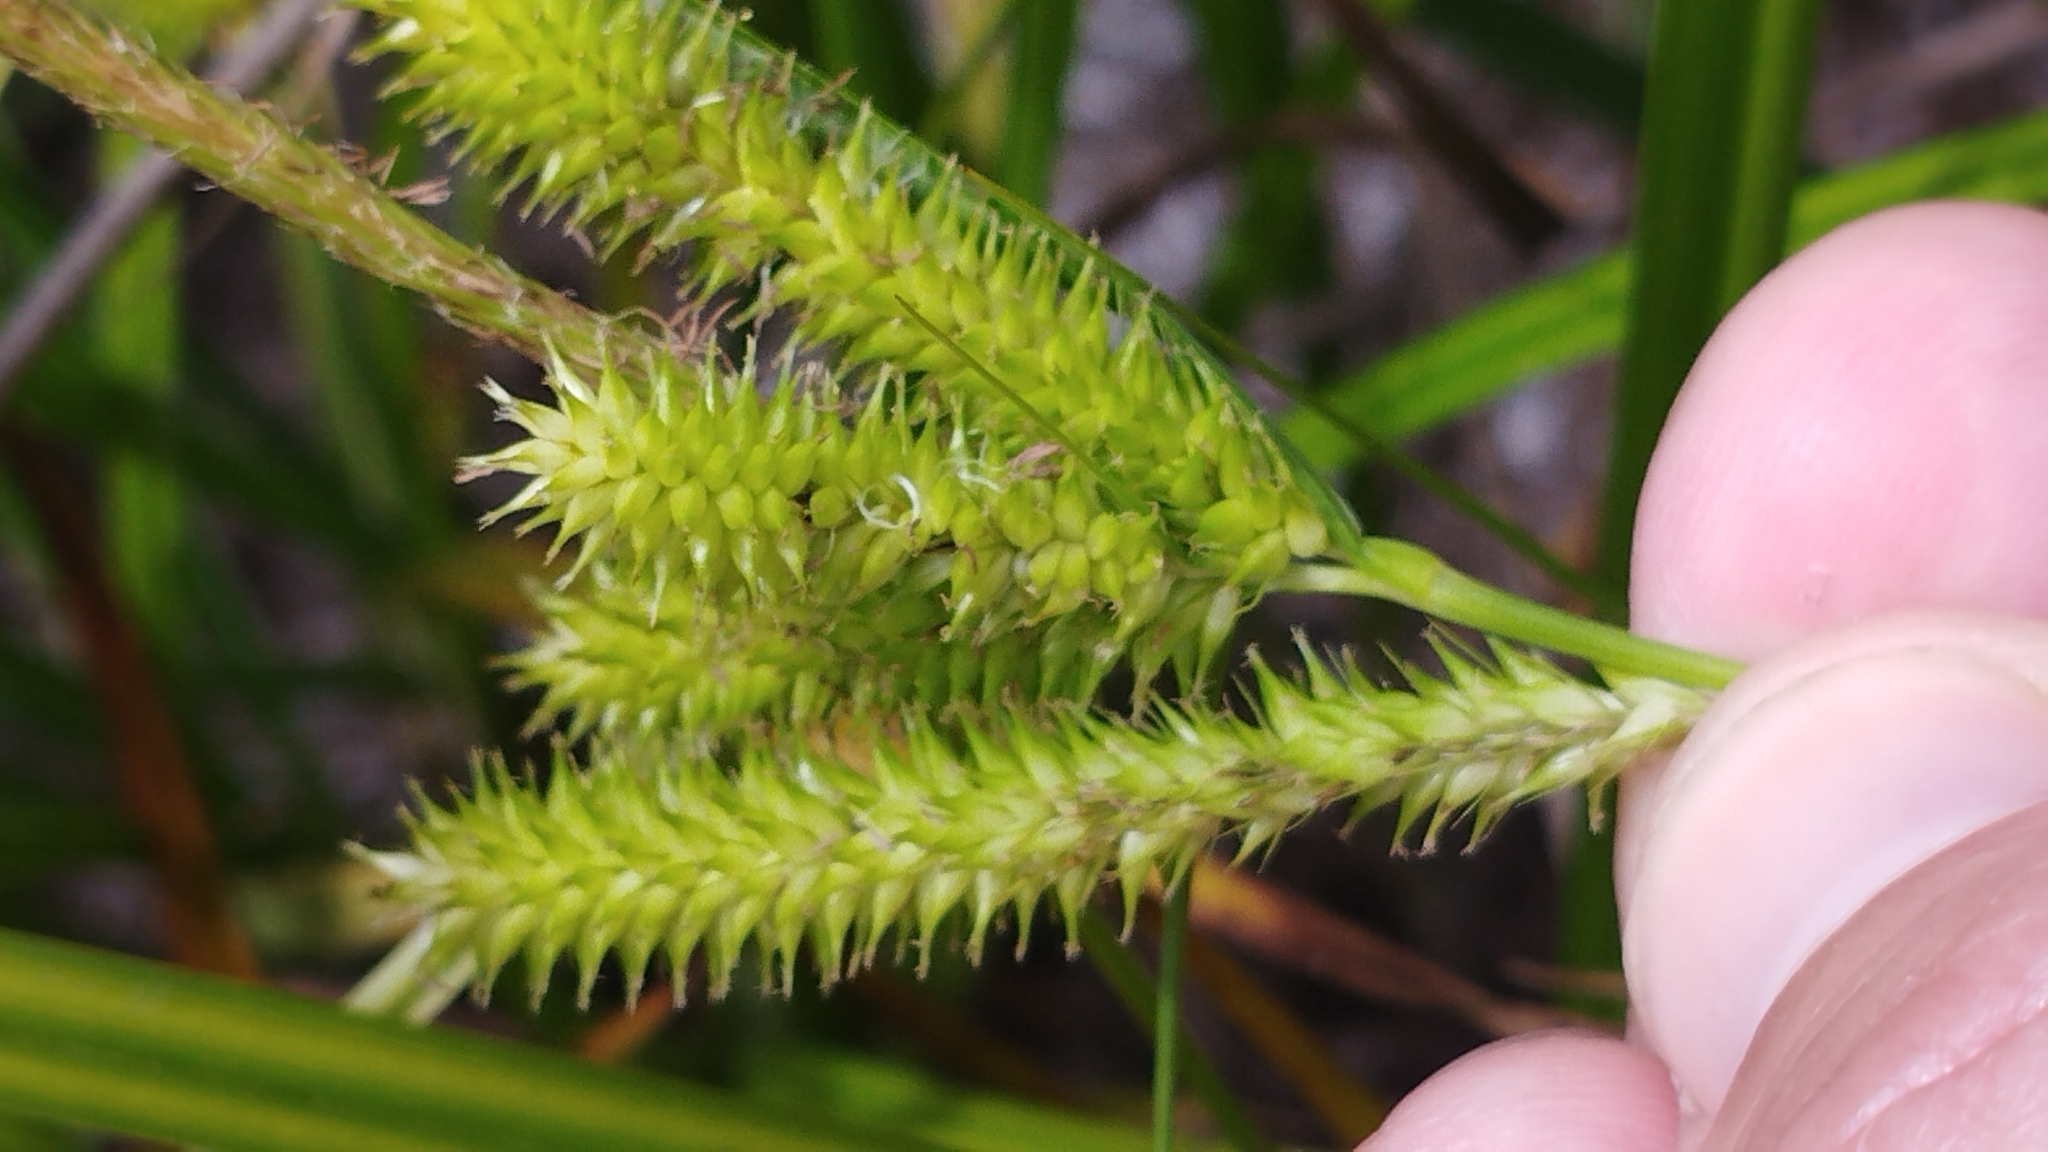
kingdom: Plantae
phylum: Tracheophyta
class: Liliopsida
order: Poales
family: Cyperaceae
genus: Carex
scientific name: Carex maorica
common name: Maori sedge
